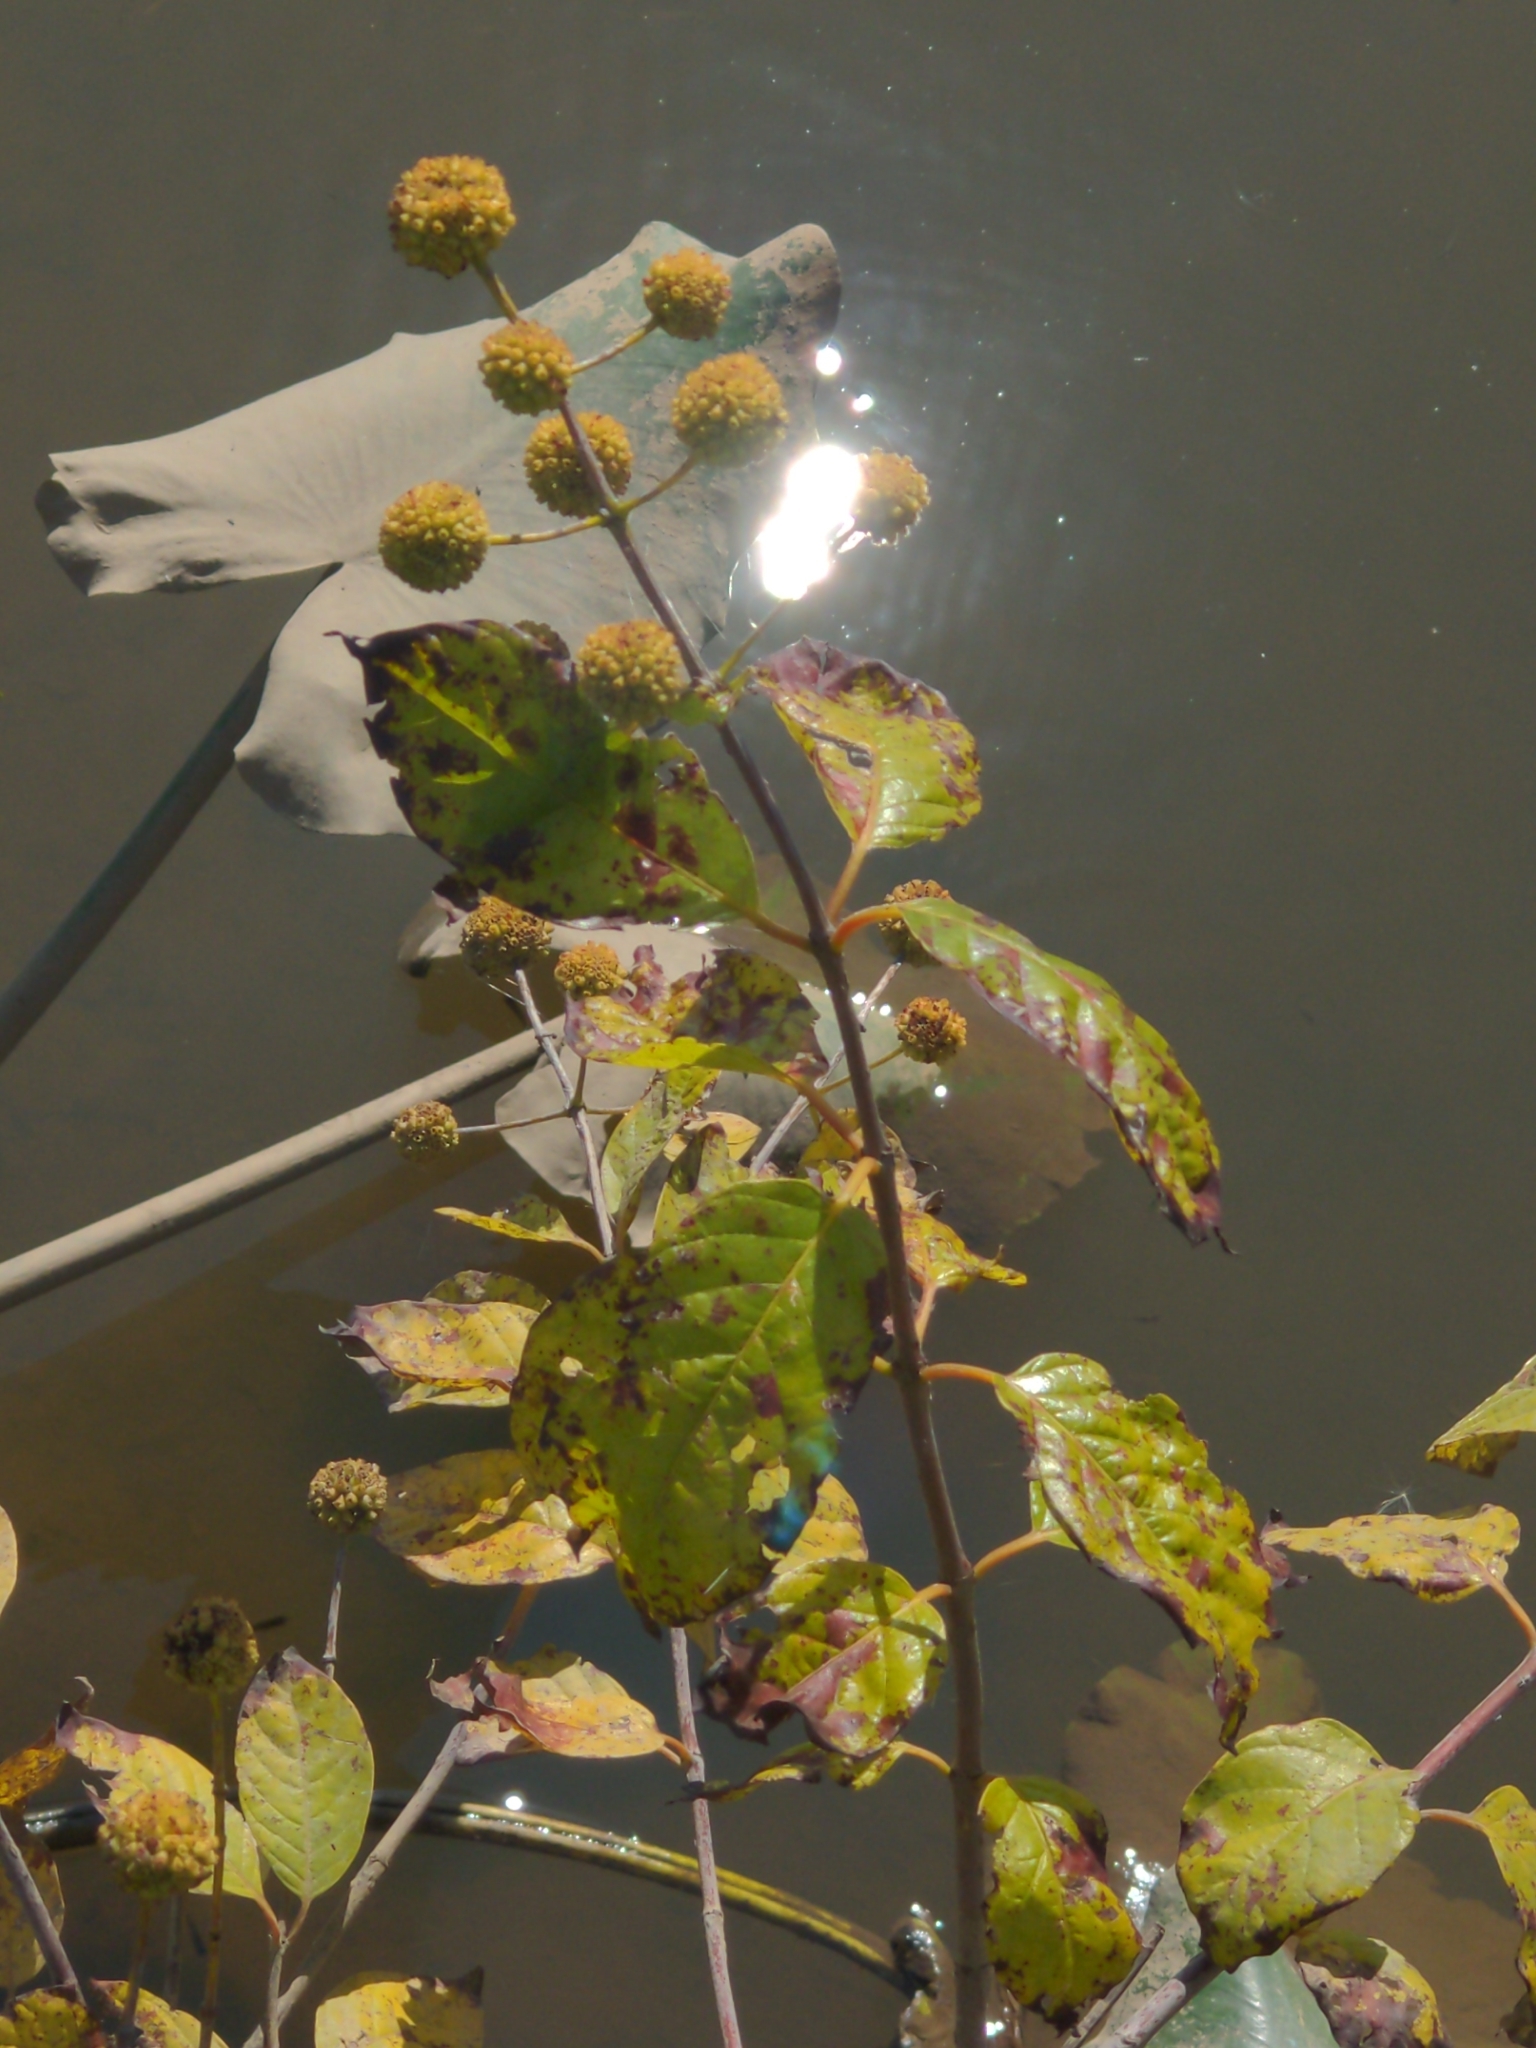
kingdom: Plantae
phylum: Tracheophyta
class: Magnoliopsida
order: Gentianales
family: Rubiaceae
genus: Cephalanthus
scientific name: Cephalanthus occidentalis
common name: Button-willow
